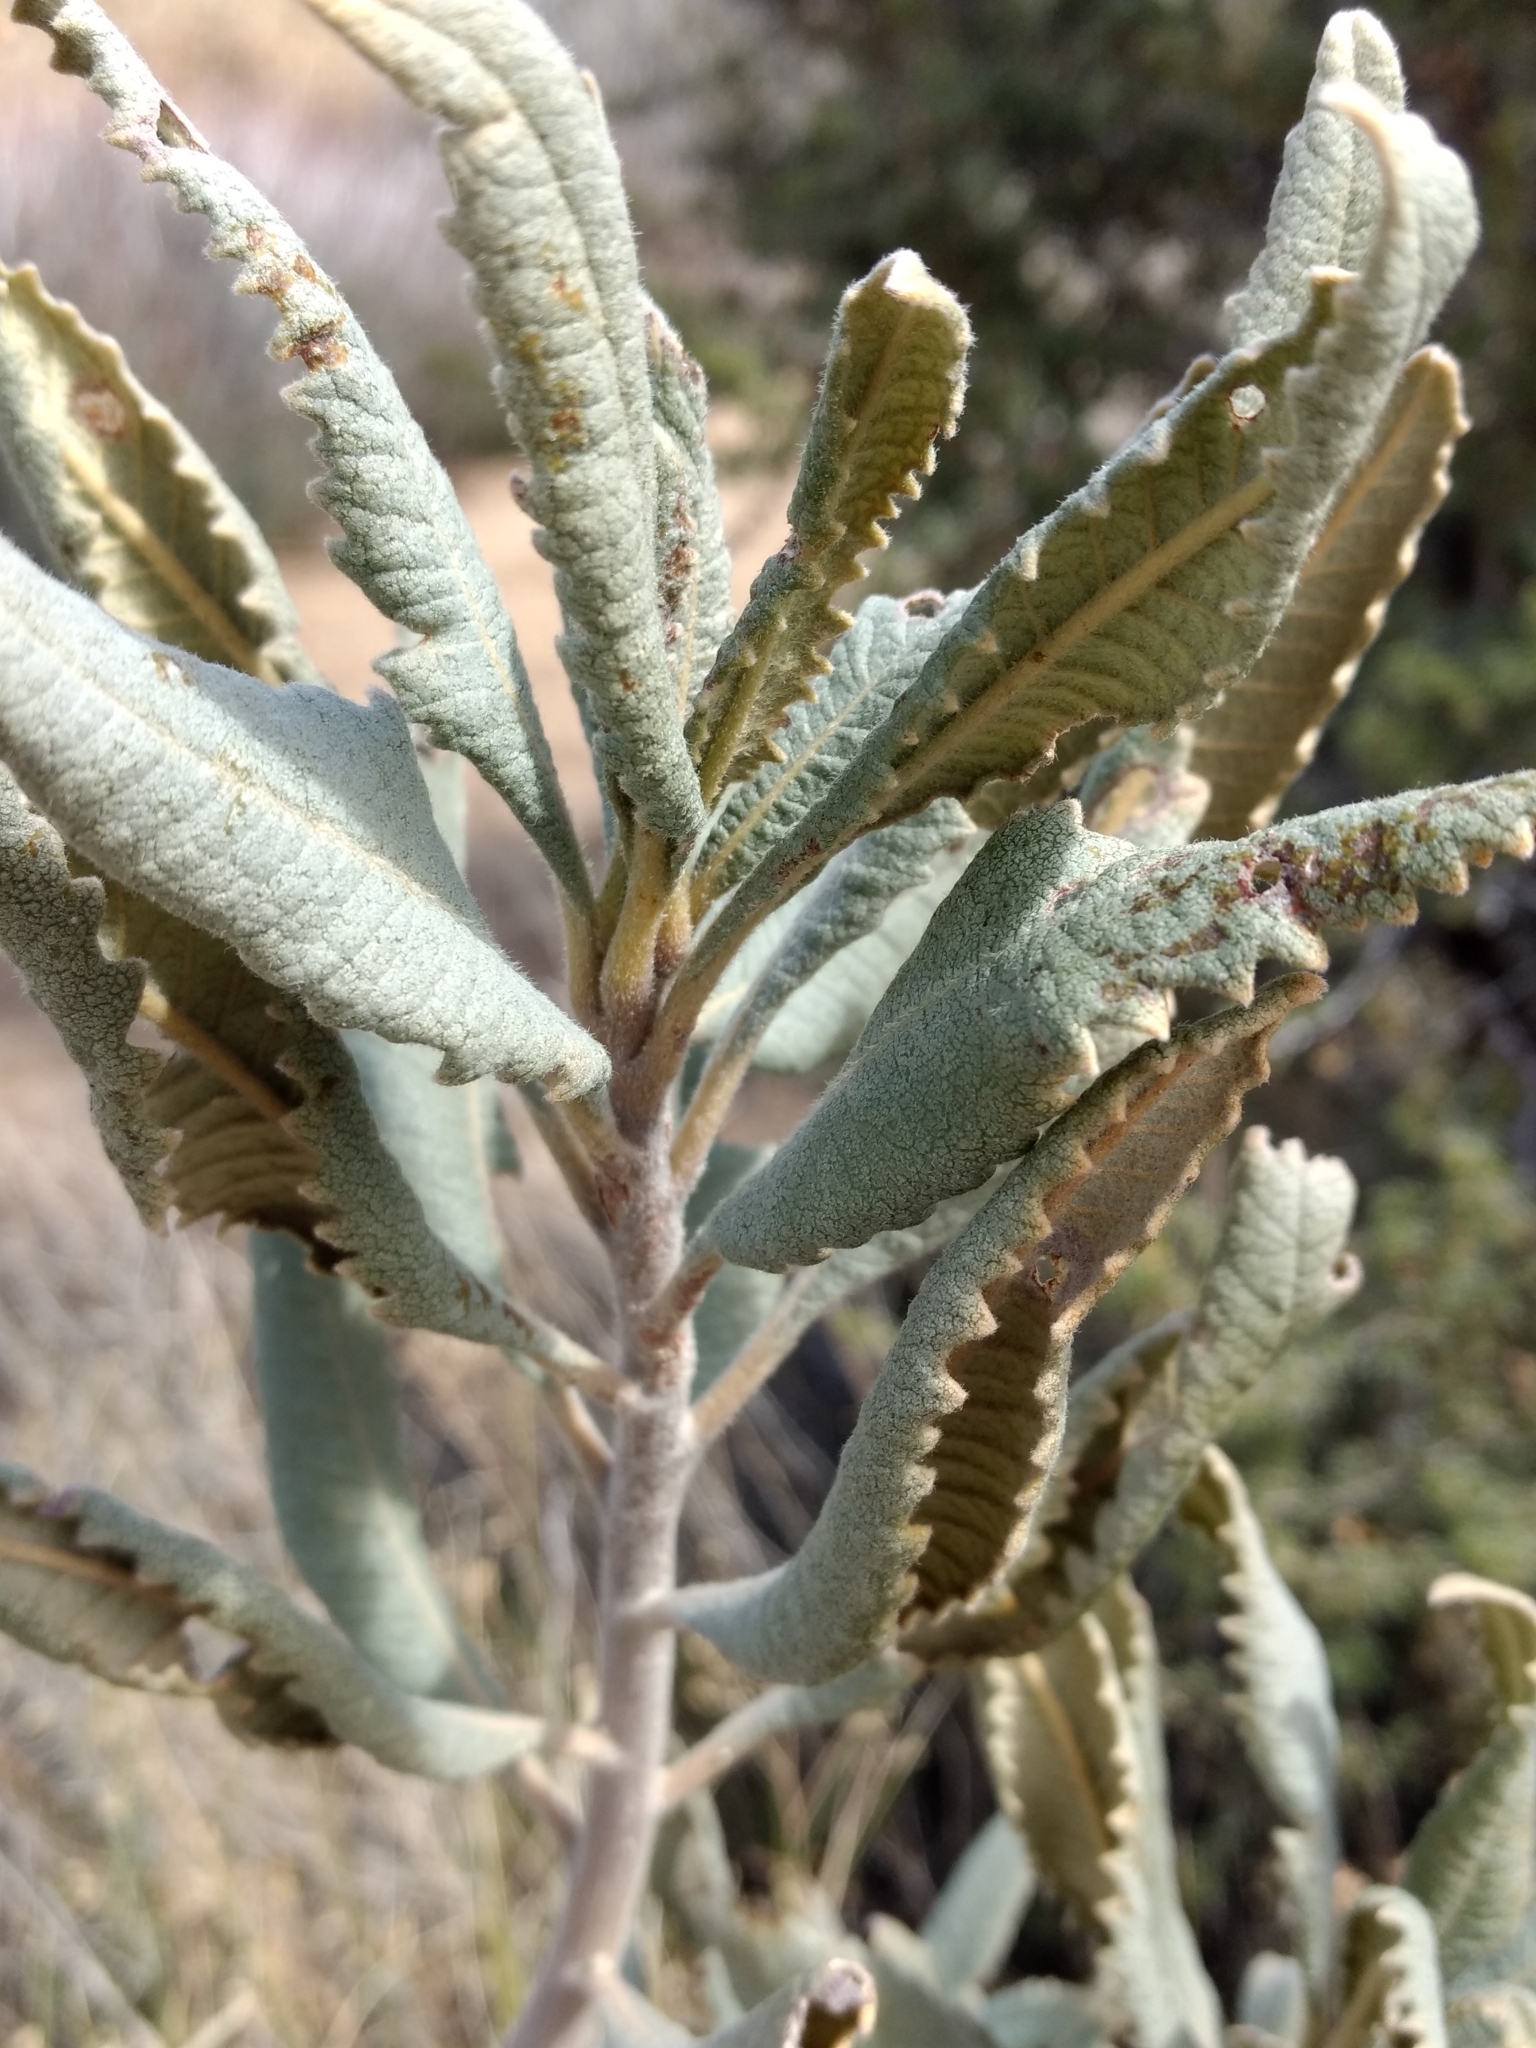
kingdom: Plantae
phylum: Tracheophyta
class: Magnoliopsida
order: Boraginales
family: Namaceae
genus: Eriodictyon
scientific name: Eriodictyon crassifolium
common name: Thick-leaf yerba-santa
